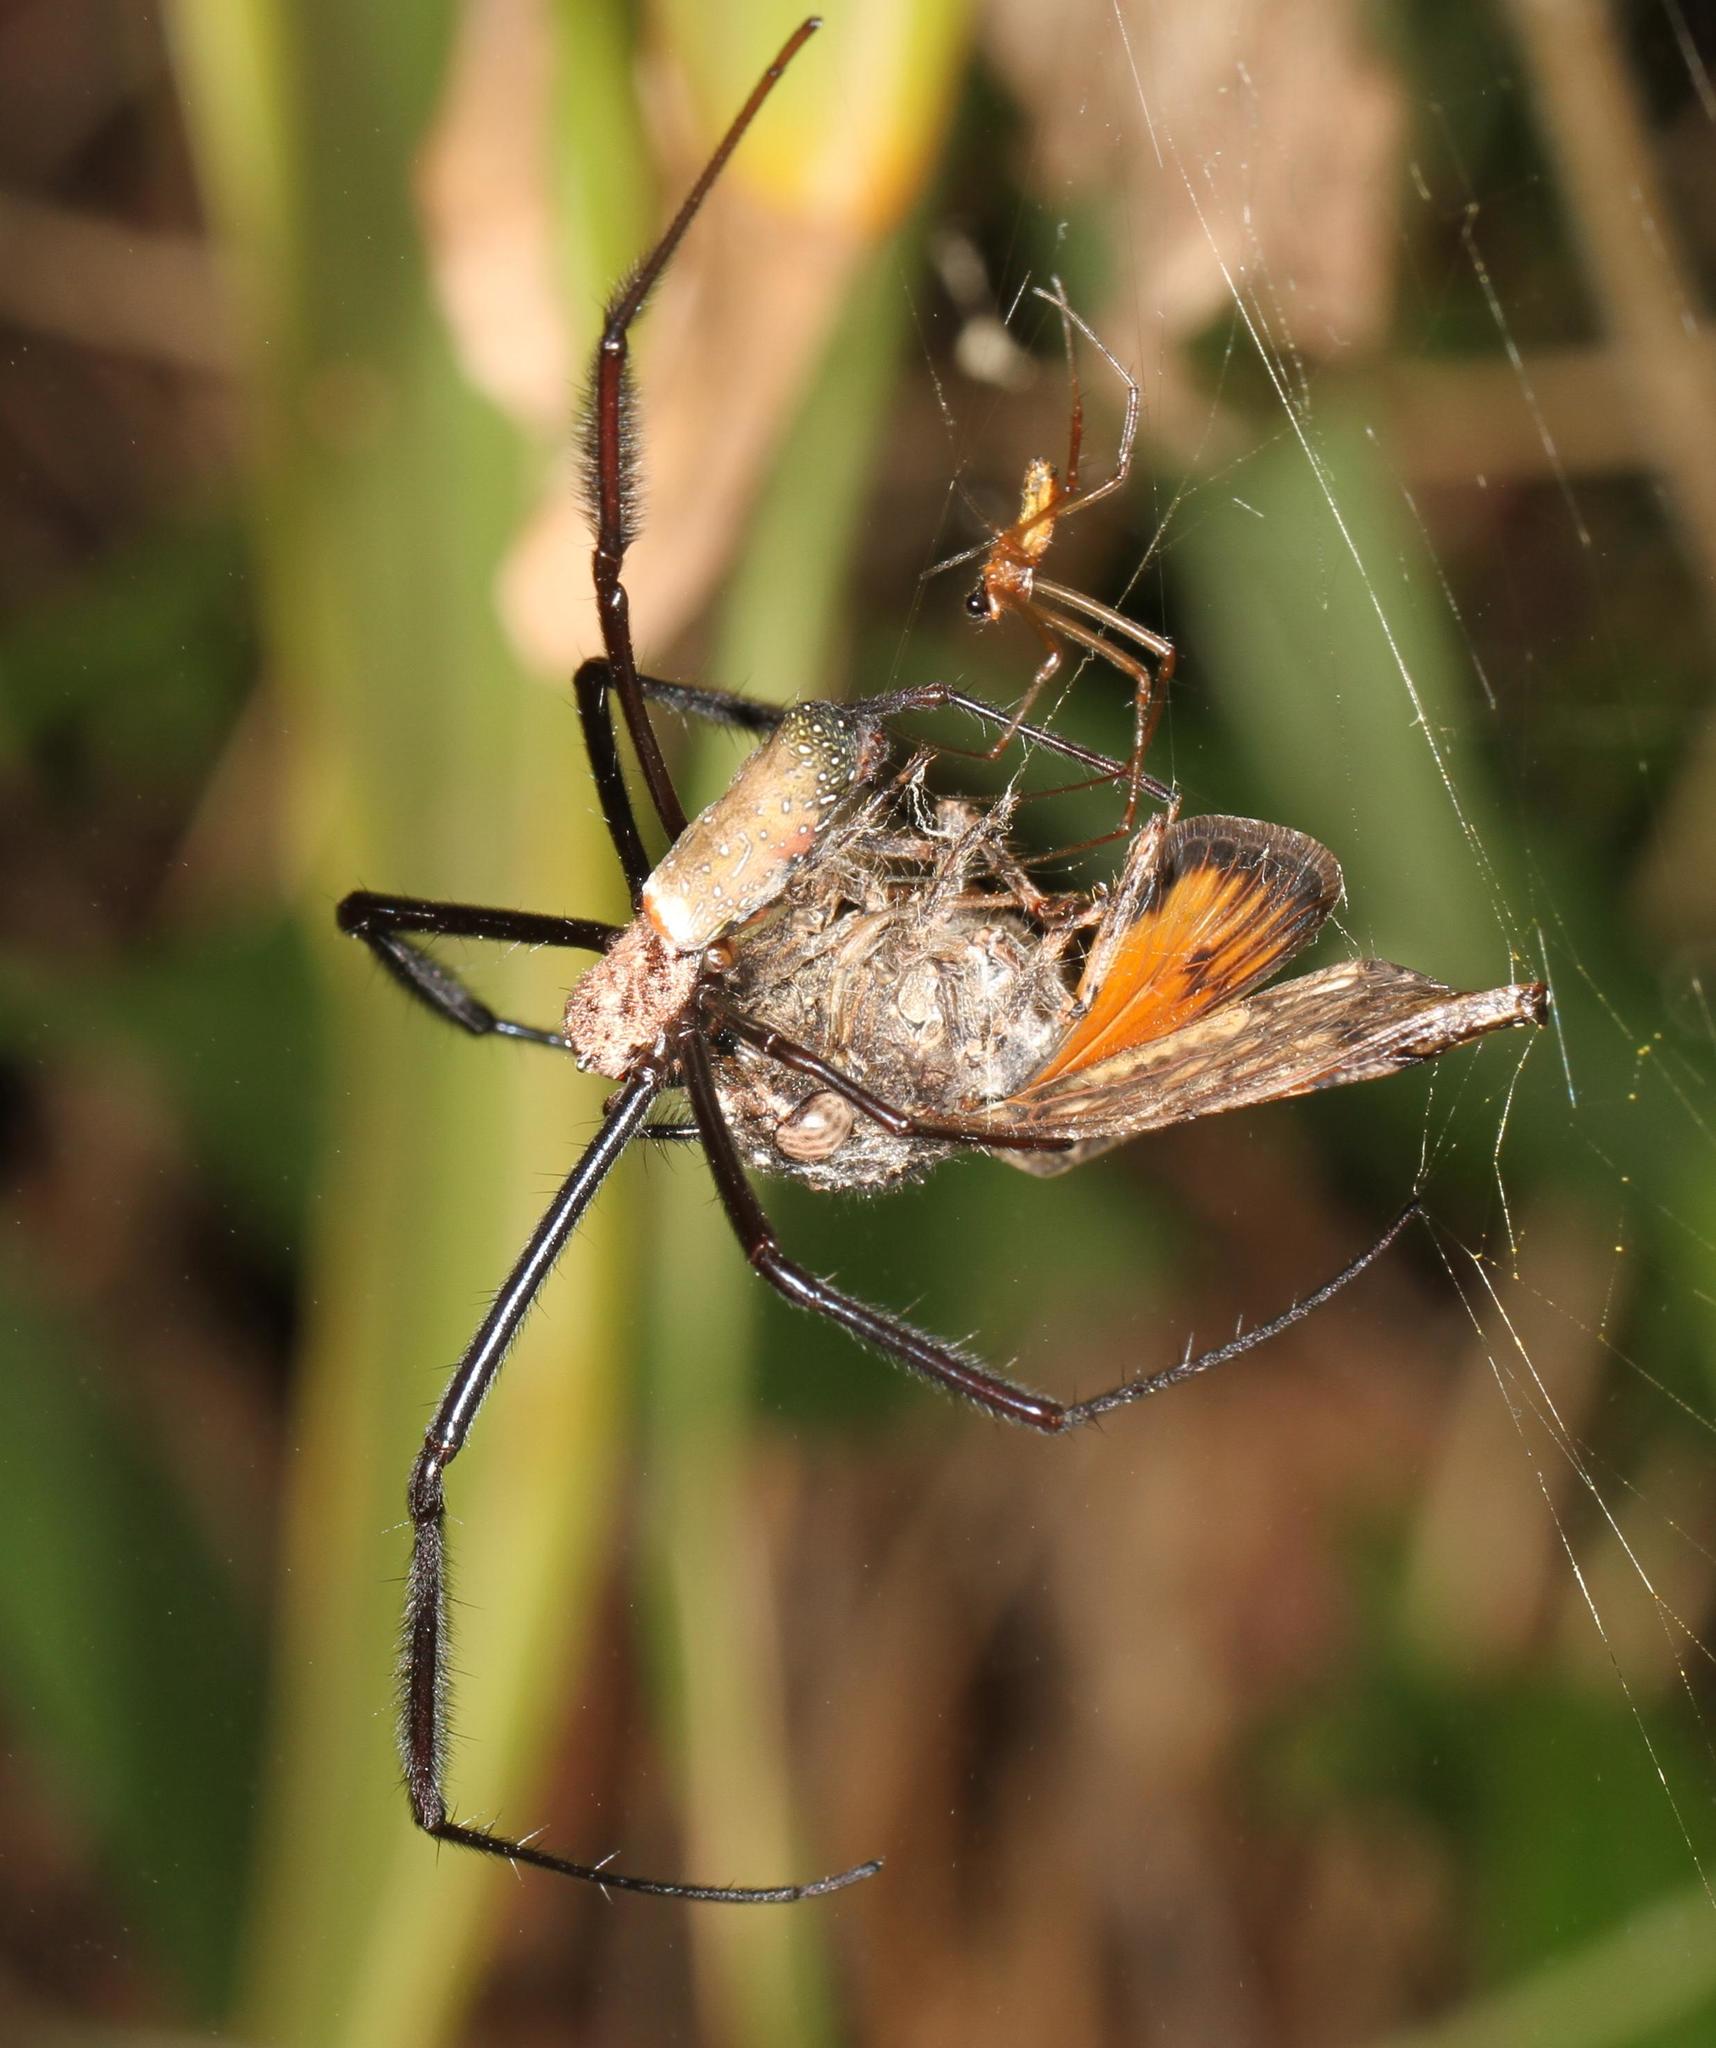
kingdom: Animalia
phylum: Arthropoda
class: Arachnida
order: Araneae
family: Araneidae
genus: Trichonephila
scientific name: Trichonephila fenestrata
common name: Hairy golden orb weaver
